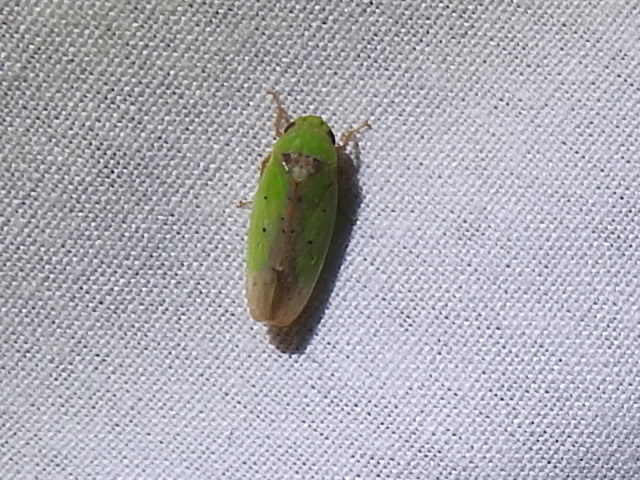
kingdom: Animalia
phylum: Arthropoda
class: Insecta
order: Hemiptera
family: Cicadellidae
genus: Ponana
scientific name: Ponana
